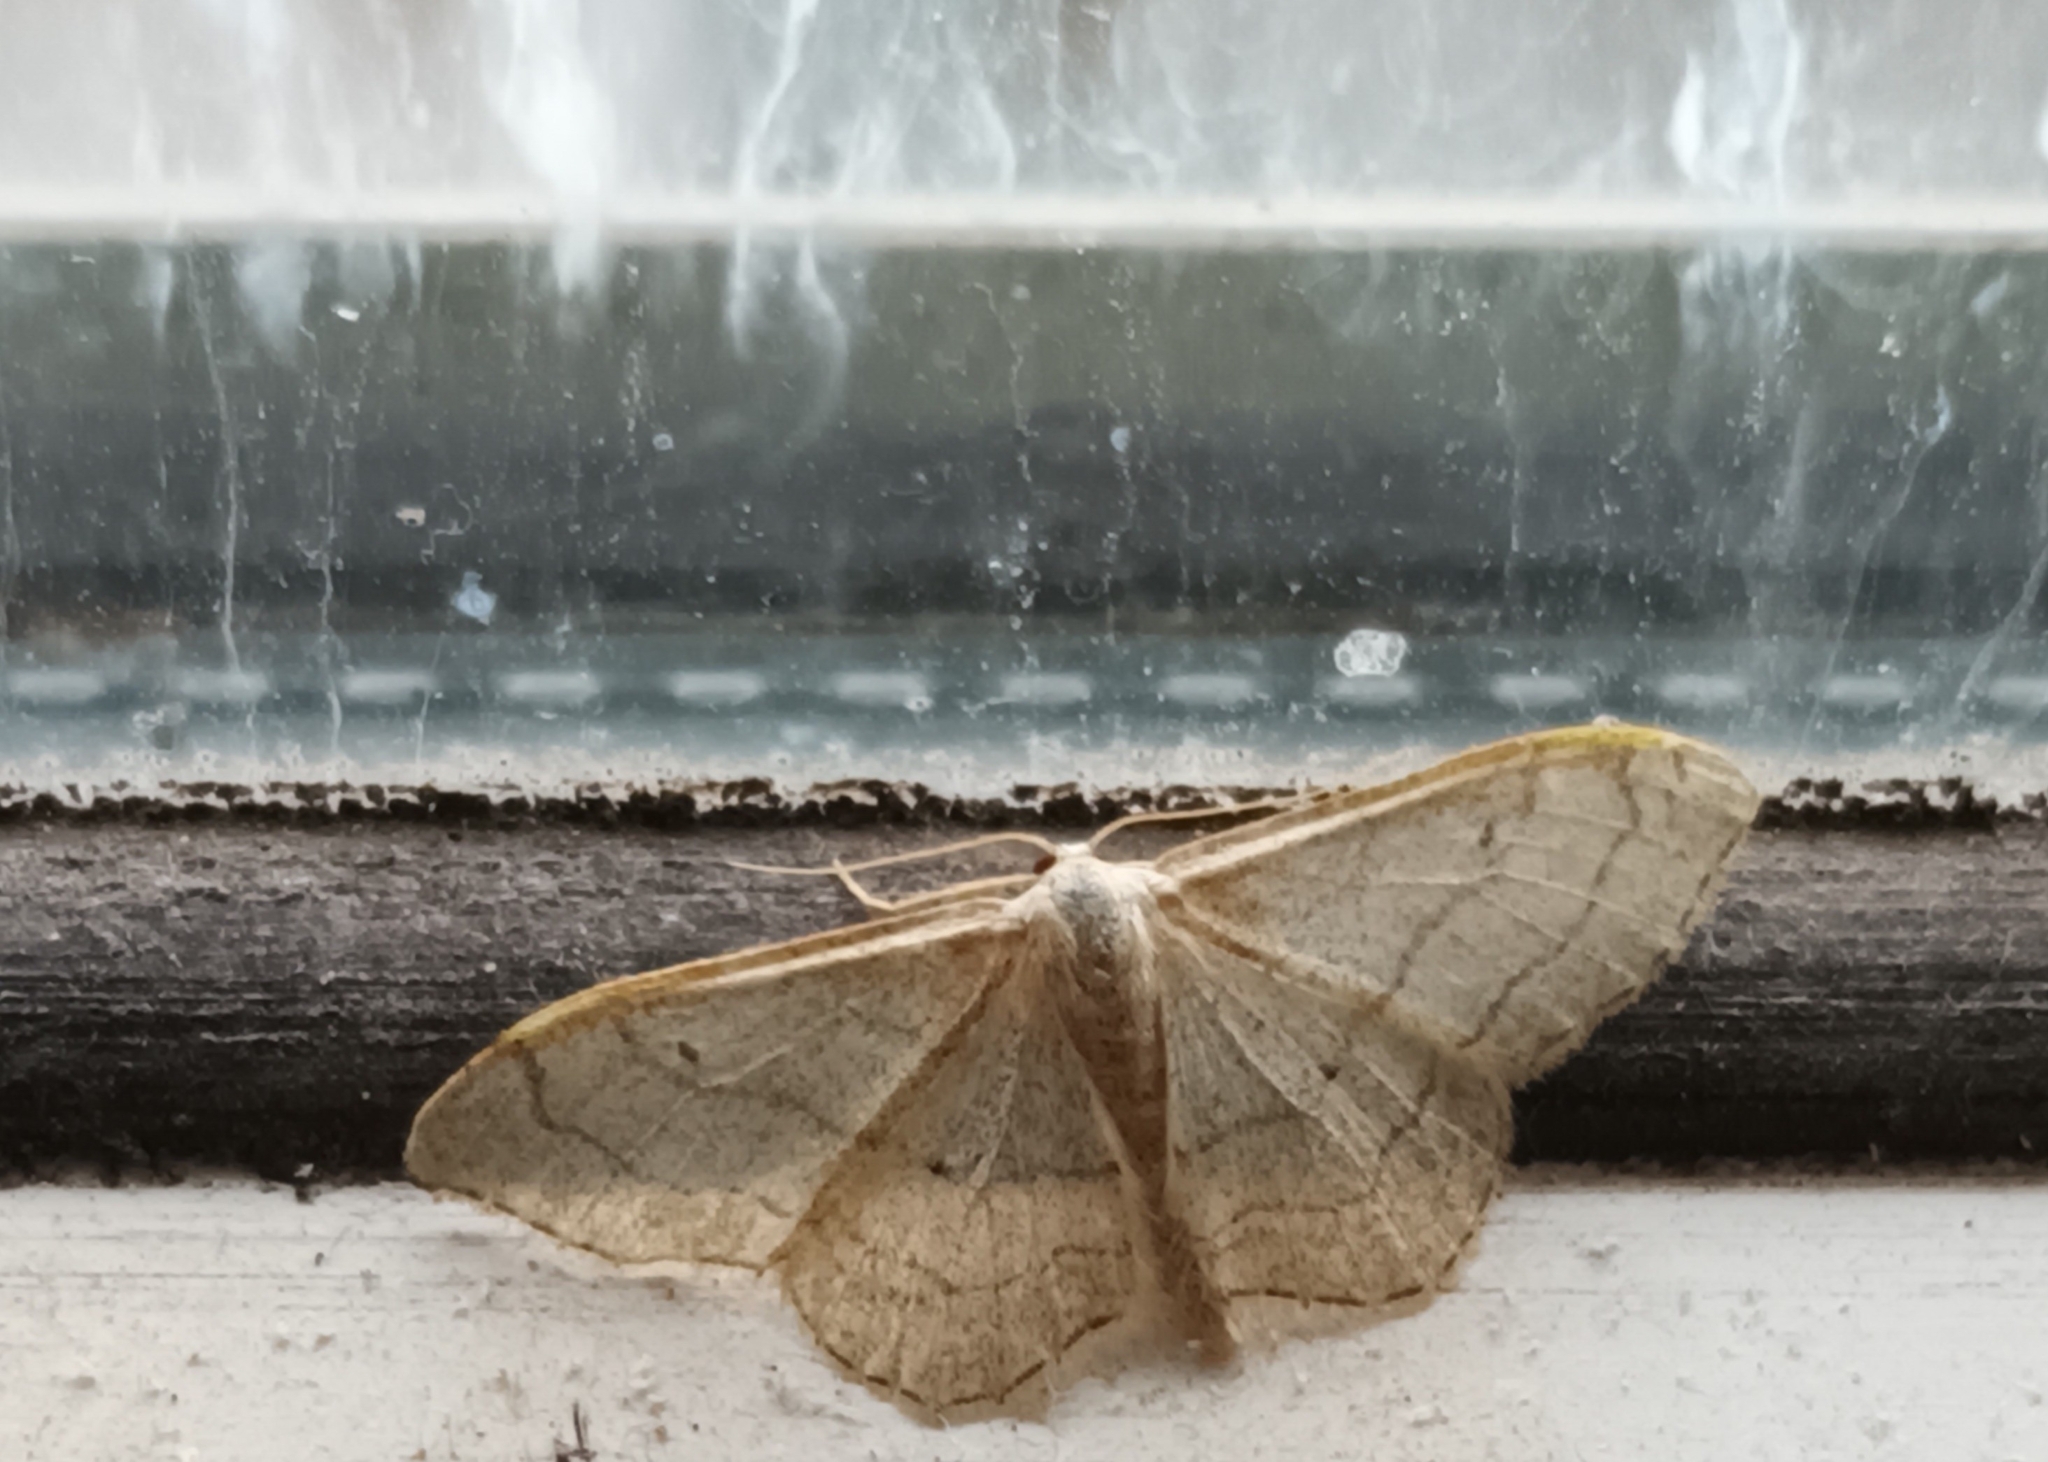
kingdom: Animalia
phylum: Arthropoda
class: Insecta
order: Lepidoptera
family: Geometridae
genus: Idaea
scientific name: Idaea aversata
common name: Riband wave
